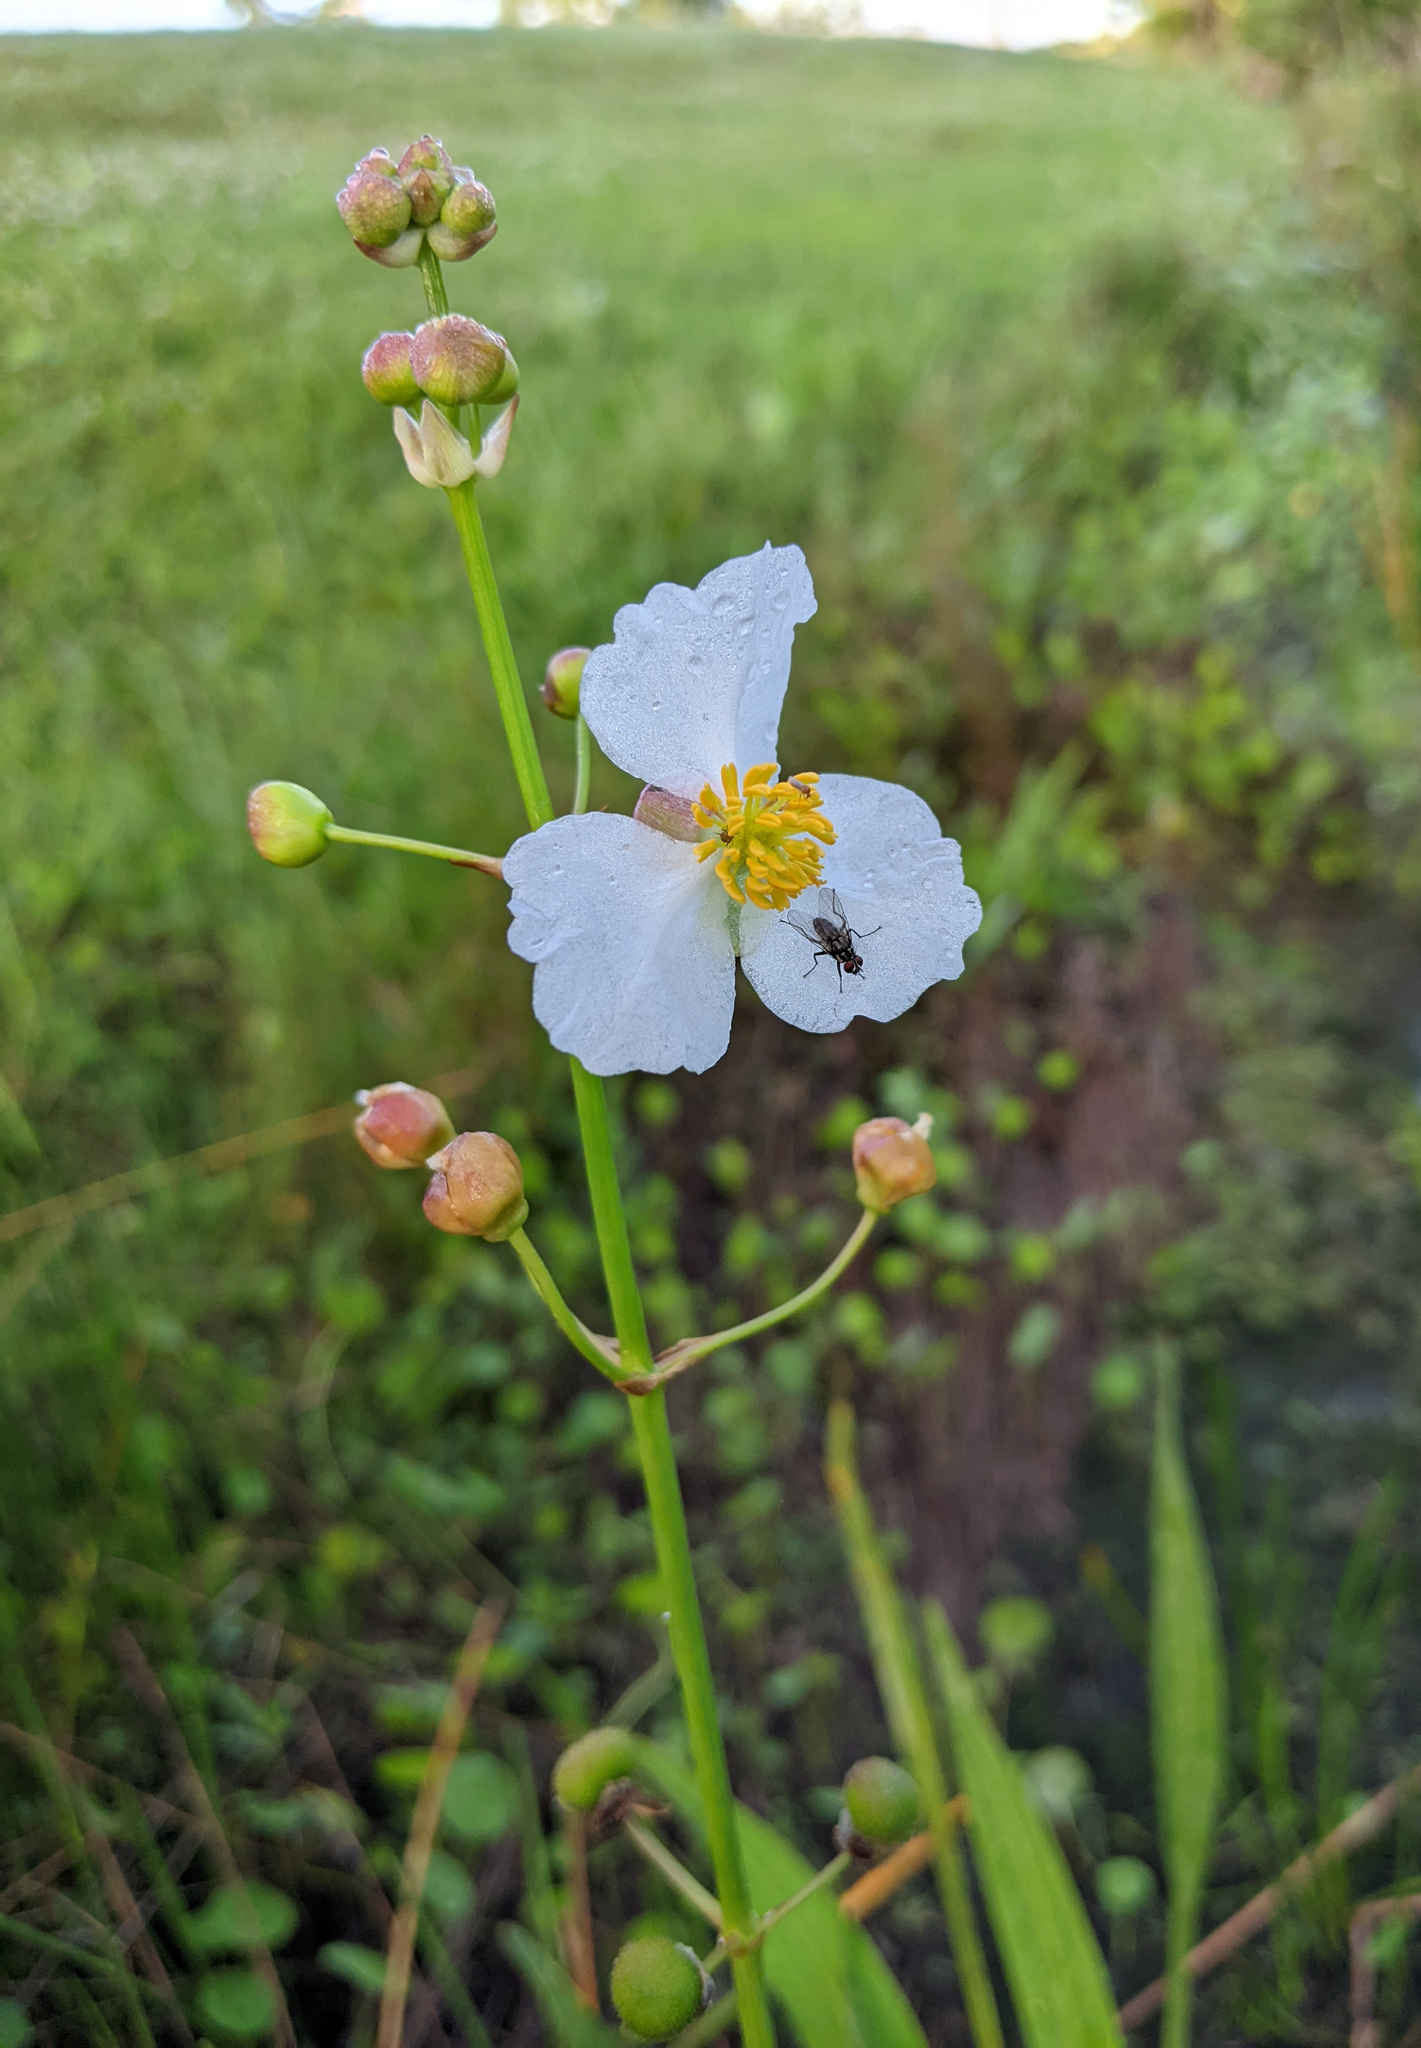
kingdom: Plantae
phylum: Tracheophyta
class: Liliopsida
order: Alismatales
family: Alismataceae
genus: Sagittaria
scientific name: Sagittaria lancifolia
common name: Lance-leaf arrowhead
